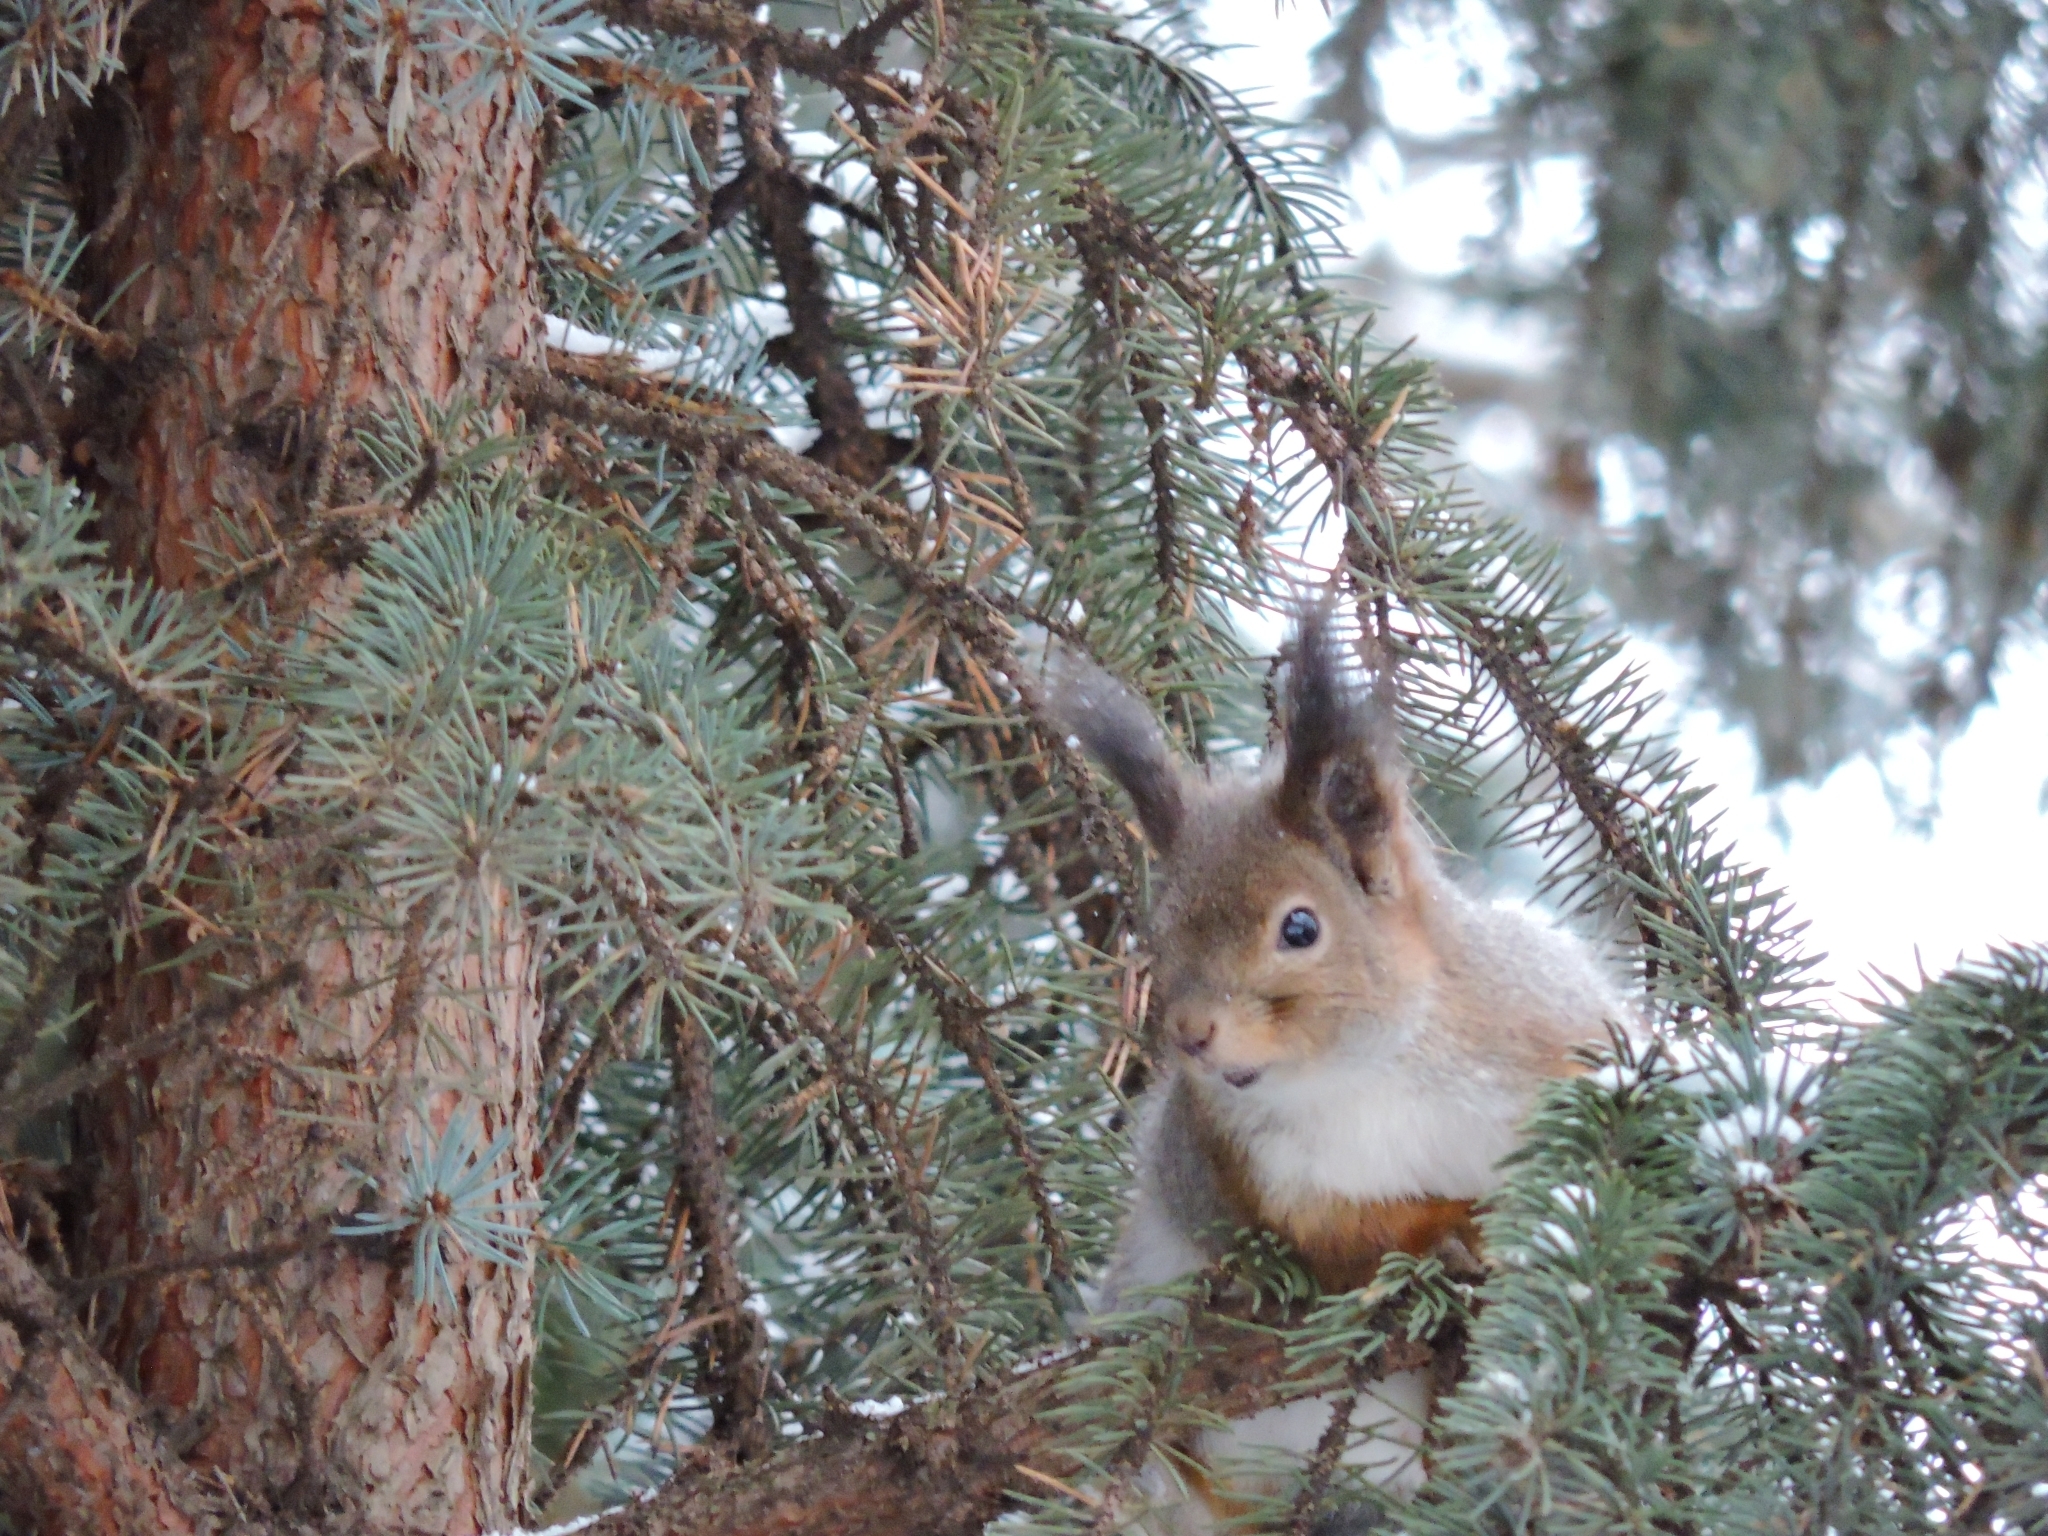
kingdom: Animalia
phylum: Chordata
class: Mammalia
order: Rodentia
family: Sciuridae
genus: Sciurus
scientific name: Sciurus vulgaris
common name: Eurasian red squirrel
